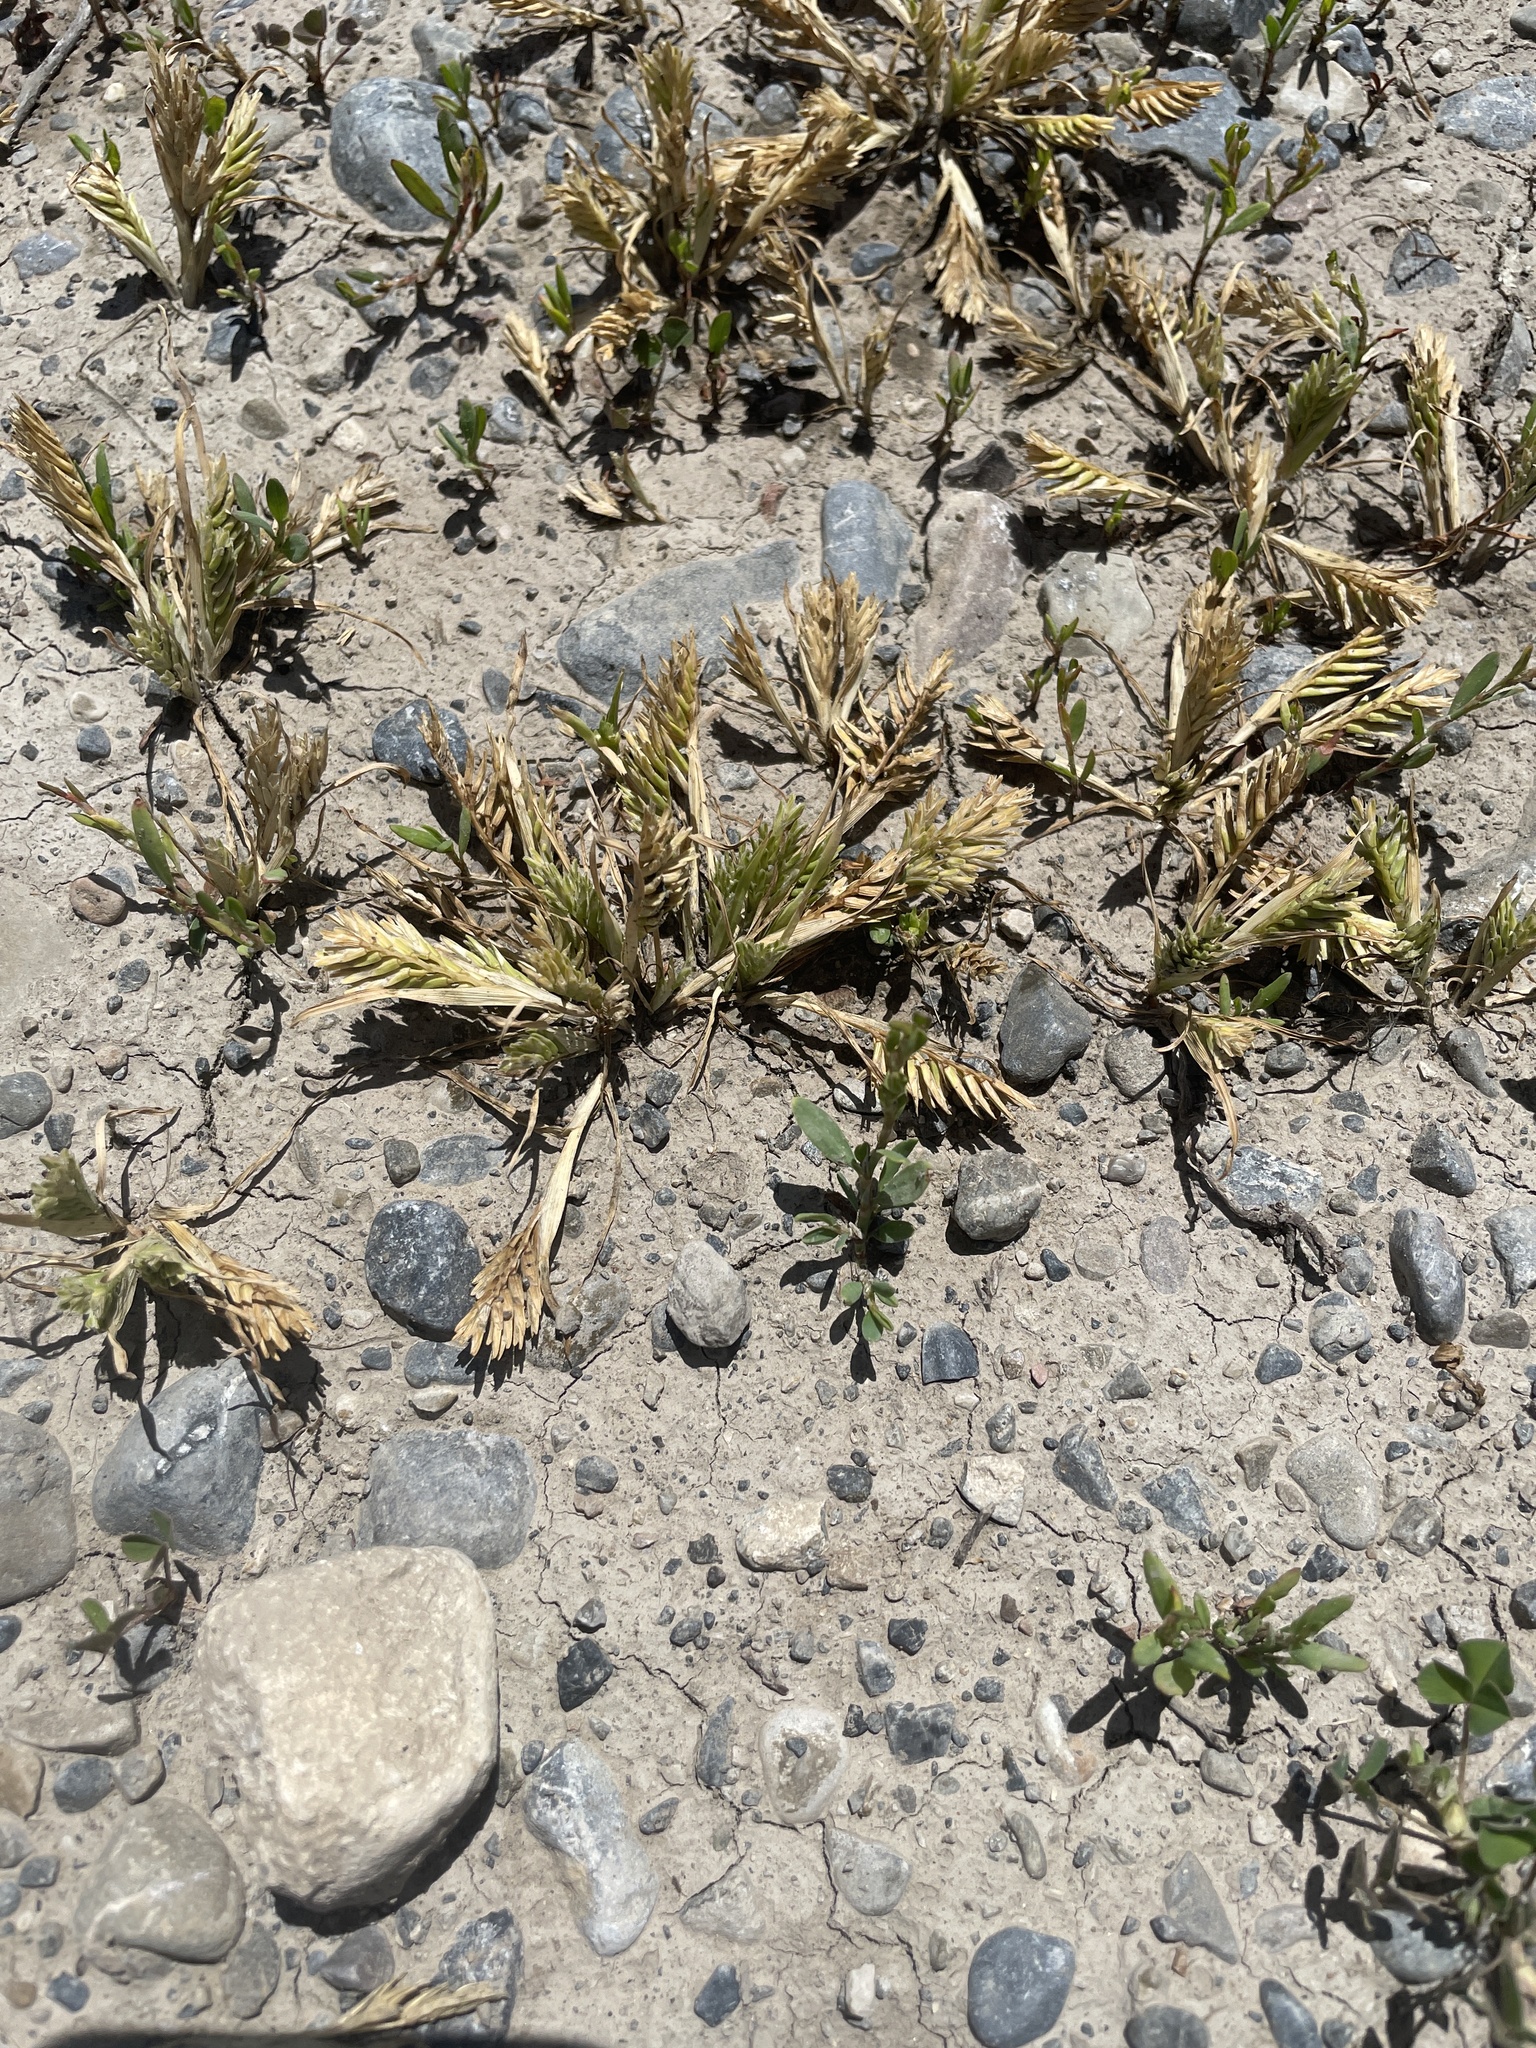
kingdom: Plantae
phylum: Tracheophyta
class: Liliopsida
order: Poales
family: Poaceae
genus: Sclerochloa
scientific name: Sclerochloa dura
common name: Common hardgrass
